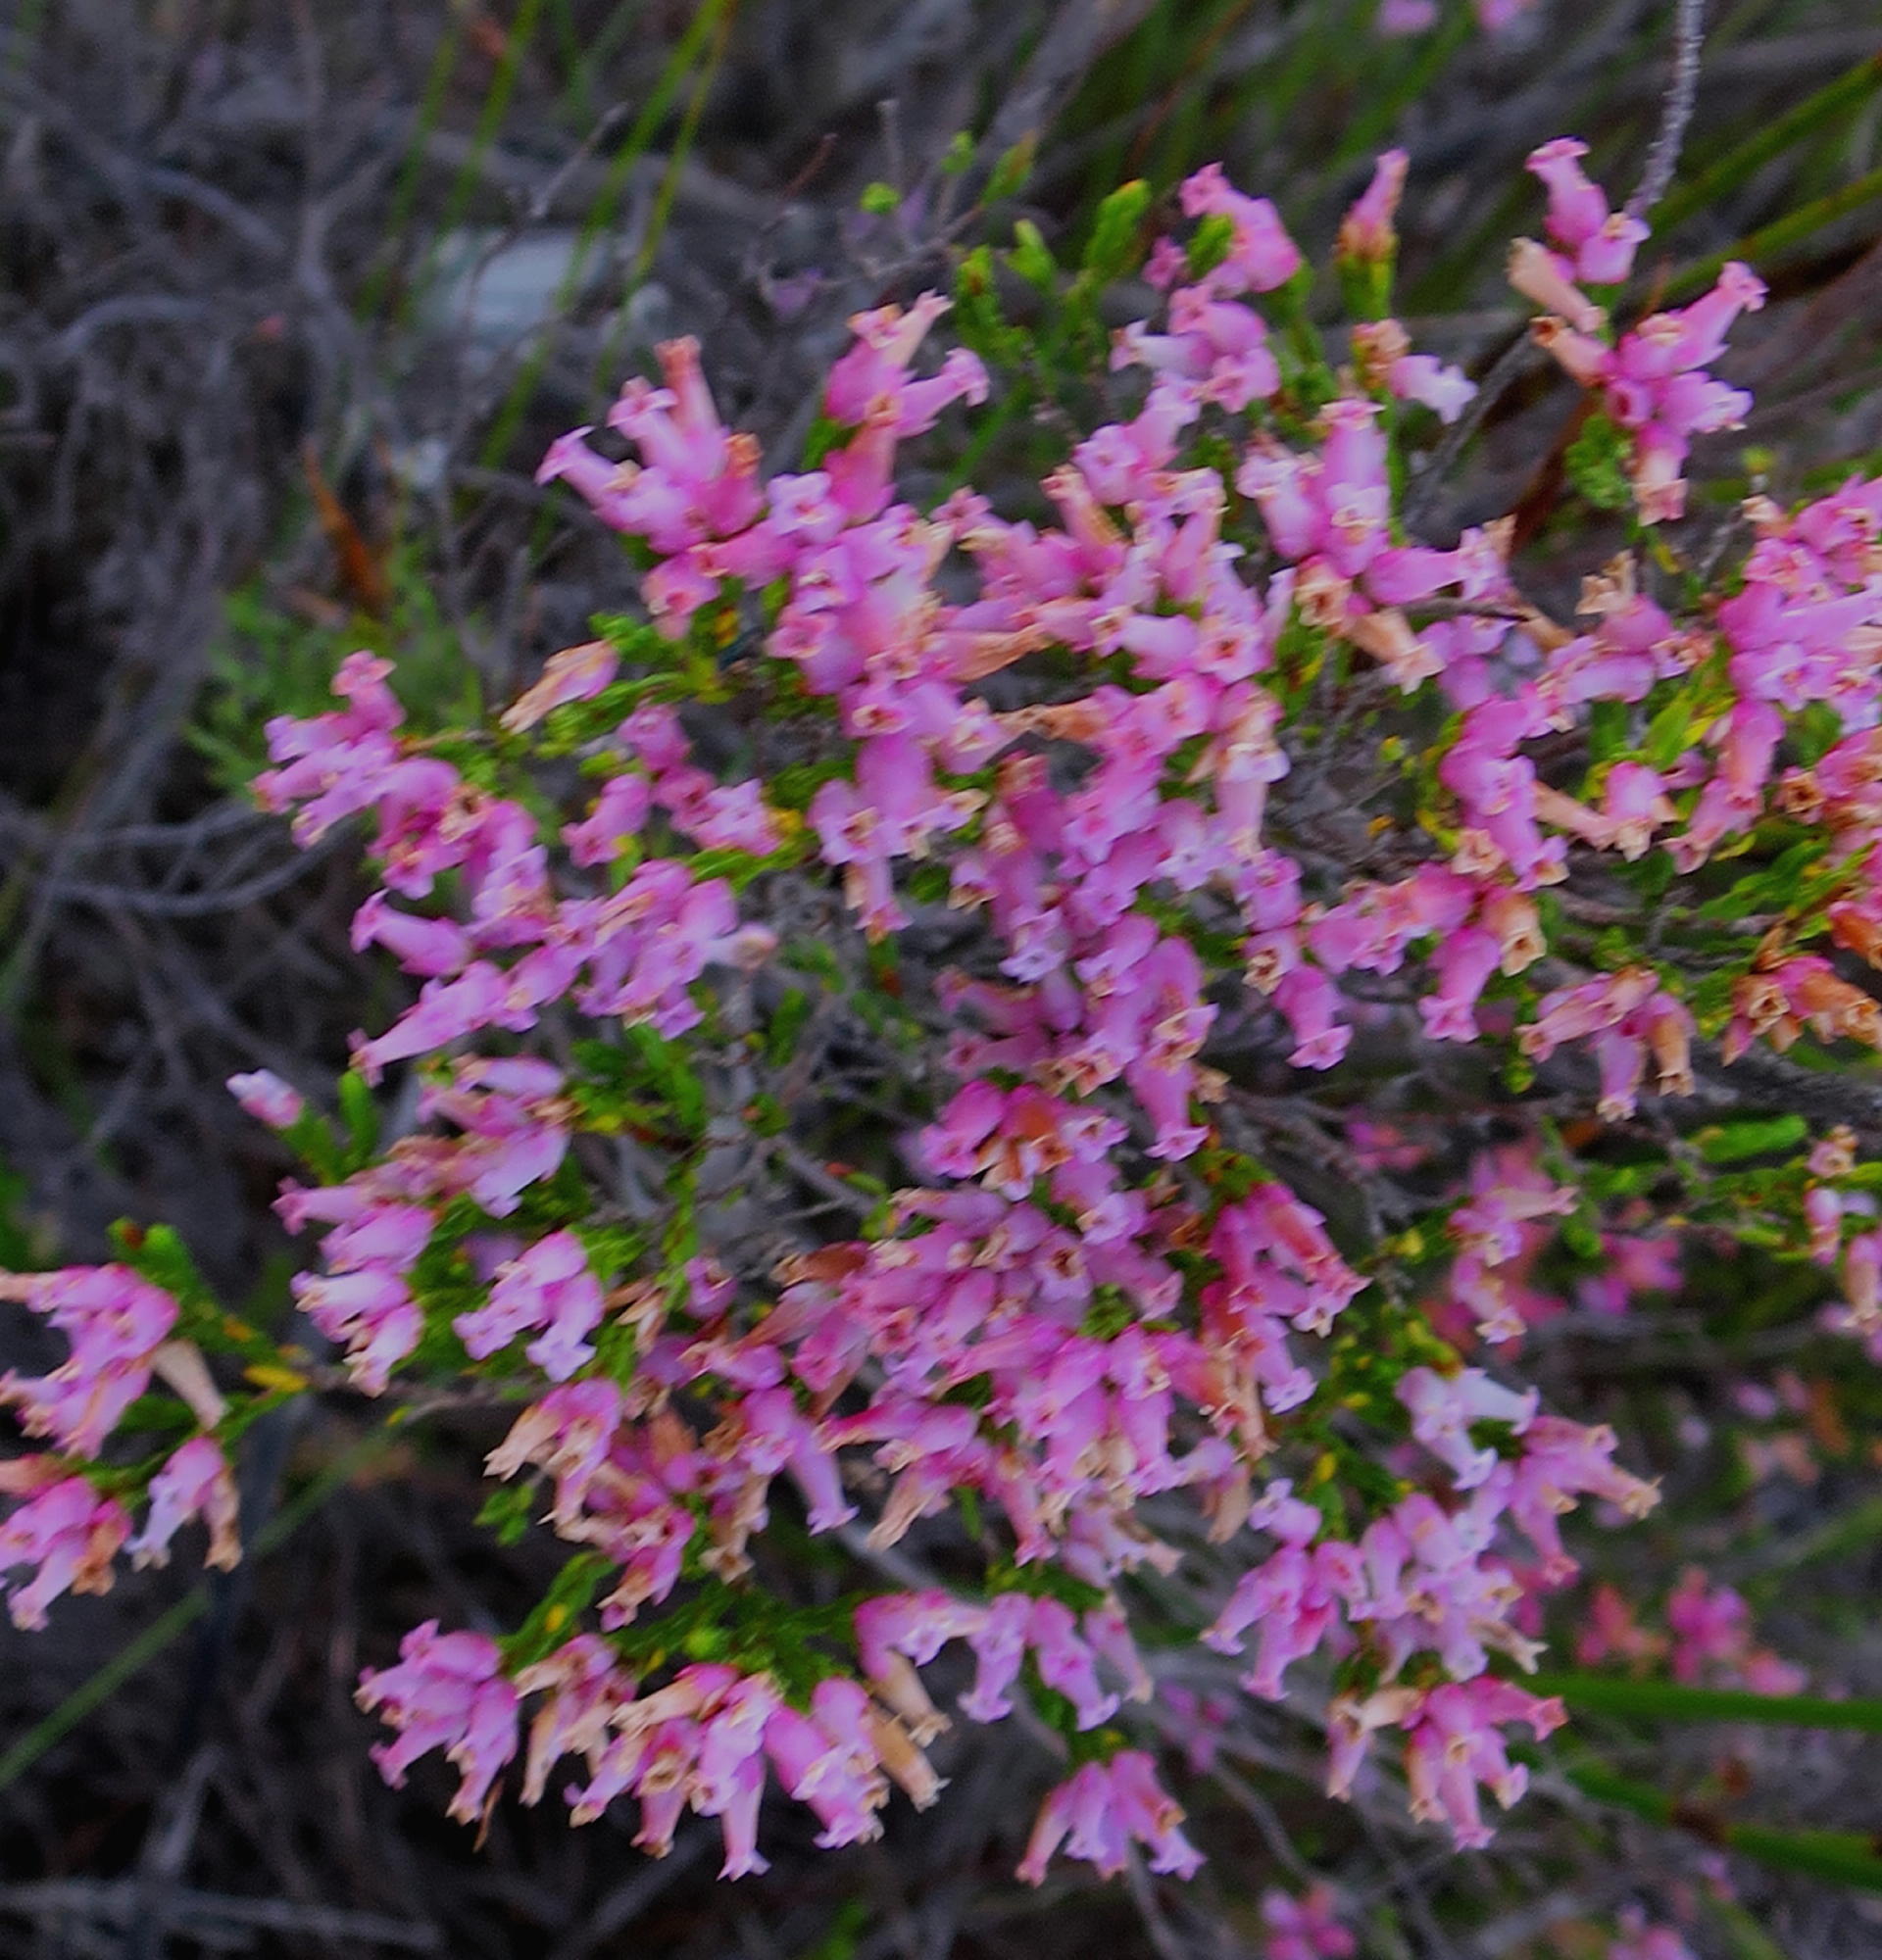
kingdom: Plantae
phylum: Tracheophyta
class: Magnoliopsida
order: Ericales
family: Ericaceae
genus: Erica
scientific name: Erica steinbergiana
